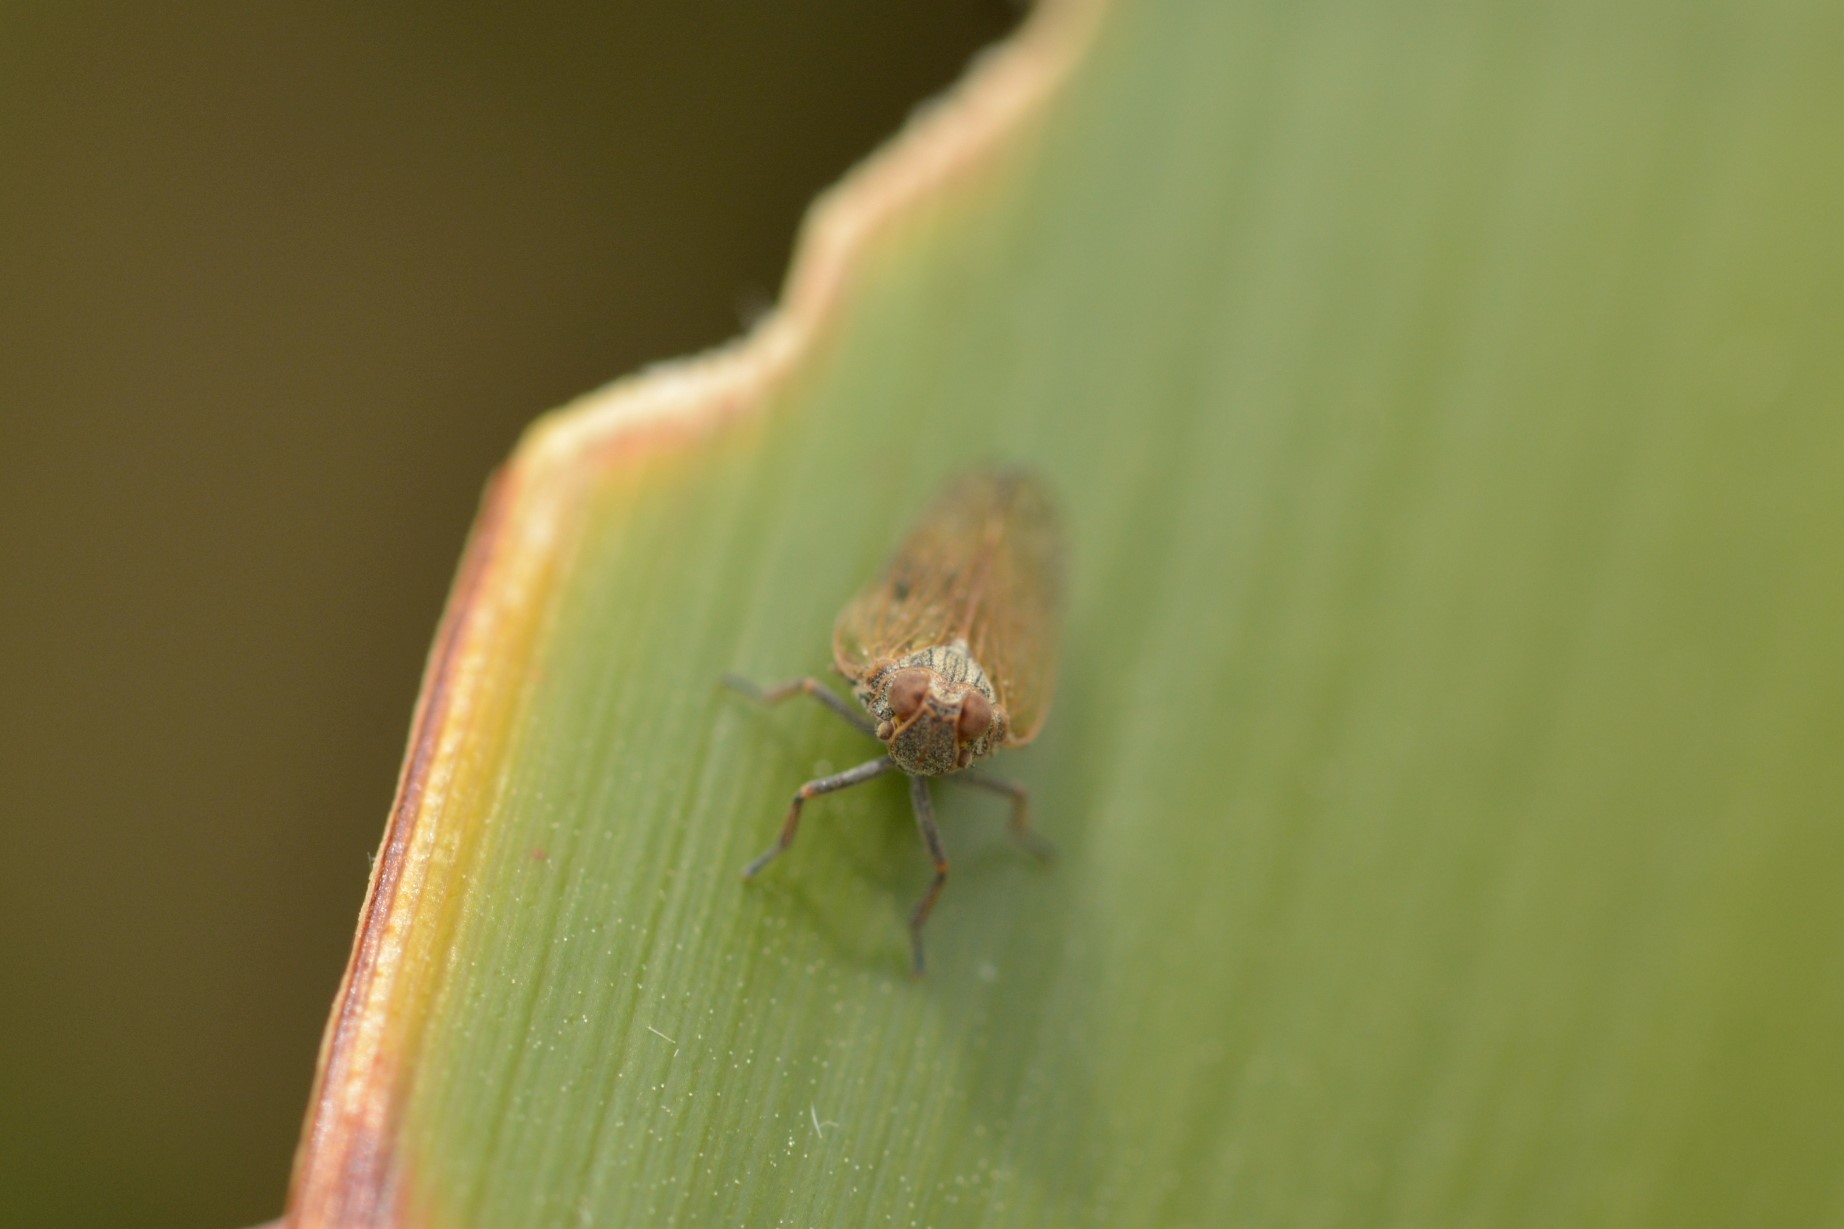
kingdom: Animalia
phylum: Arthropoda
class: Insecta
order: Hemiptera
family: Cixiidae
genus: Zeoliarus
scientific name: Zeoliarus oppositus
